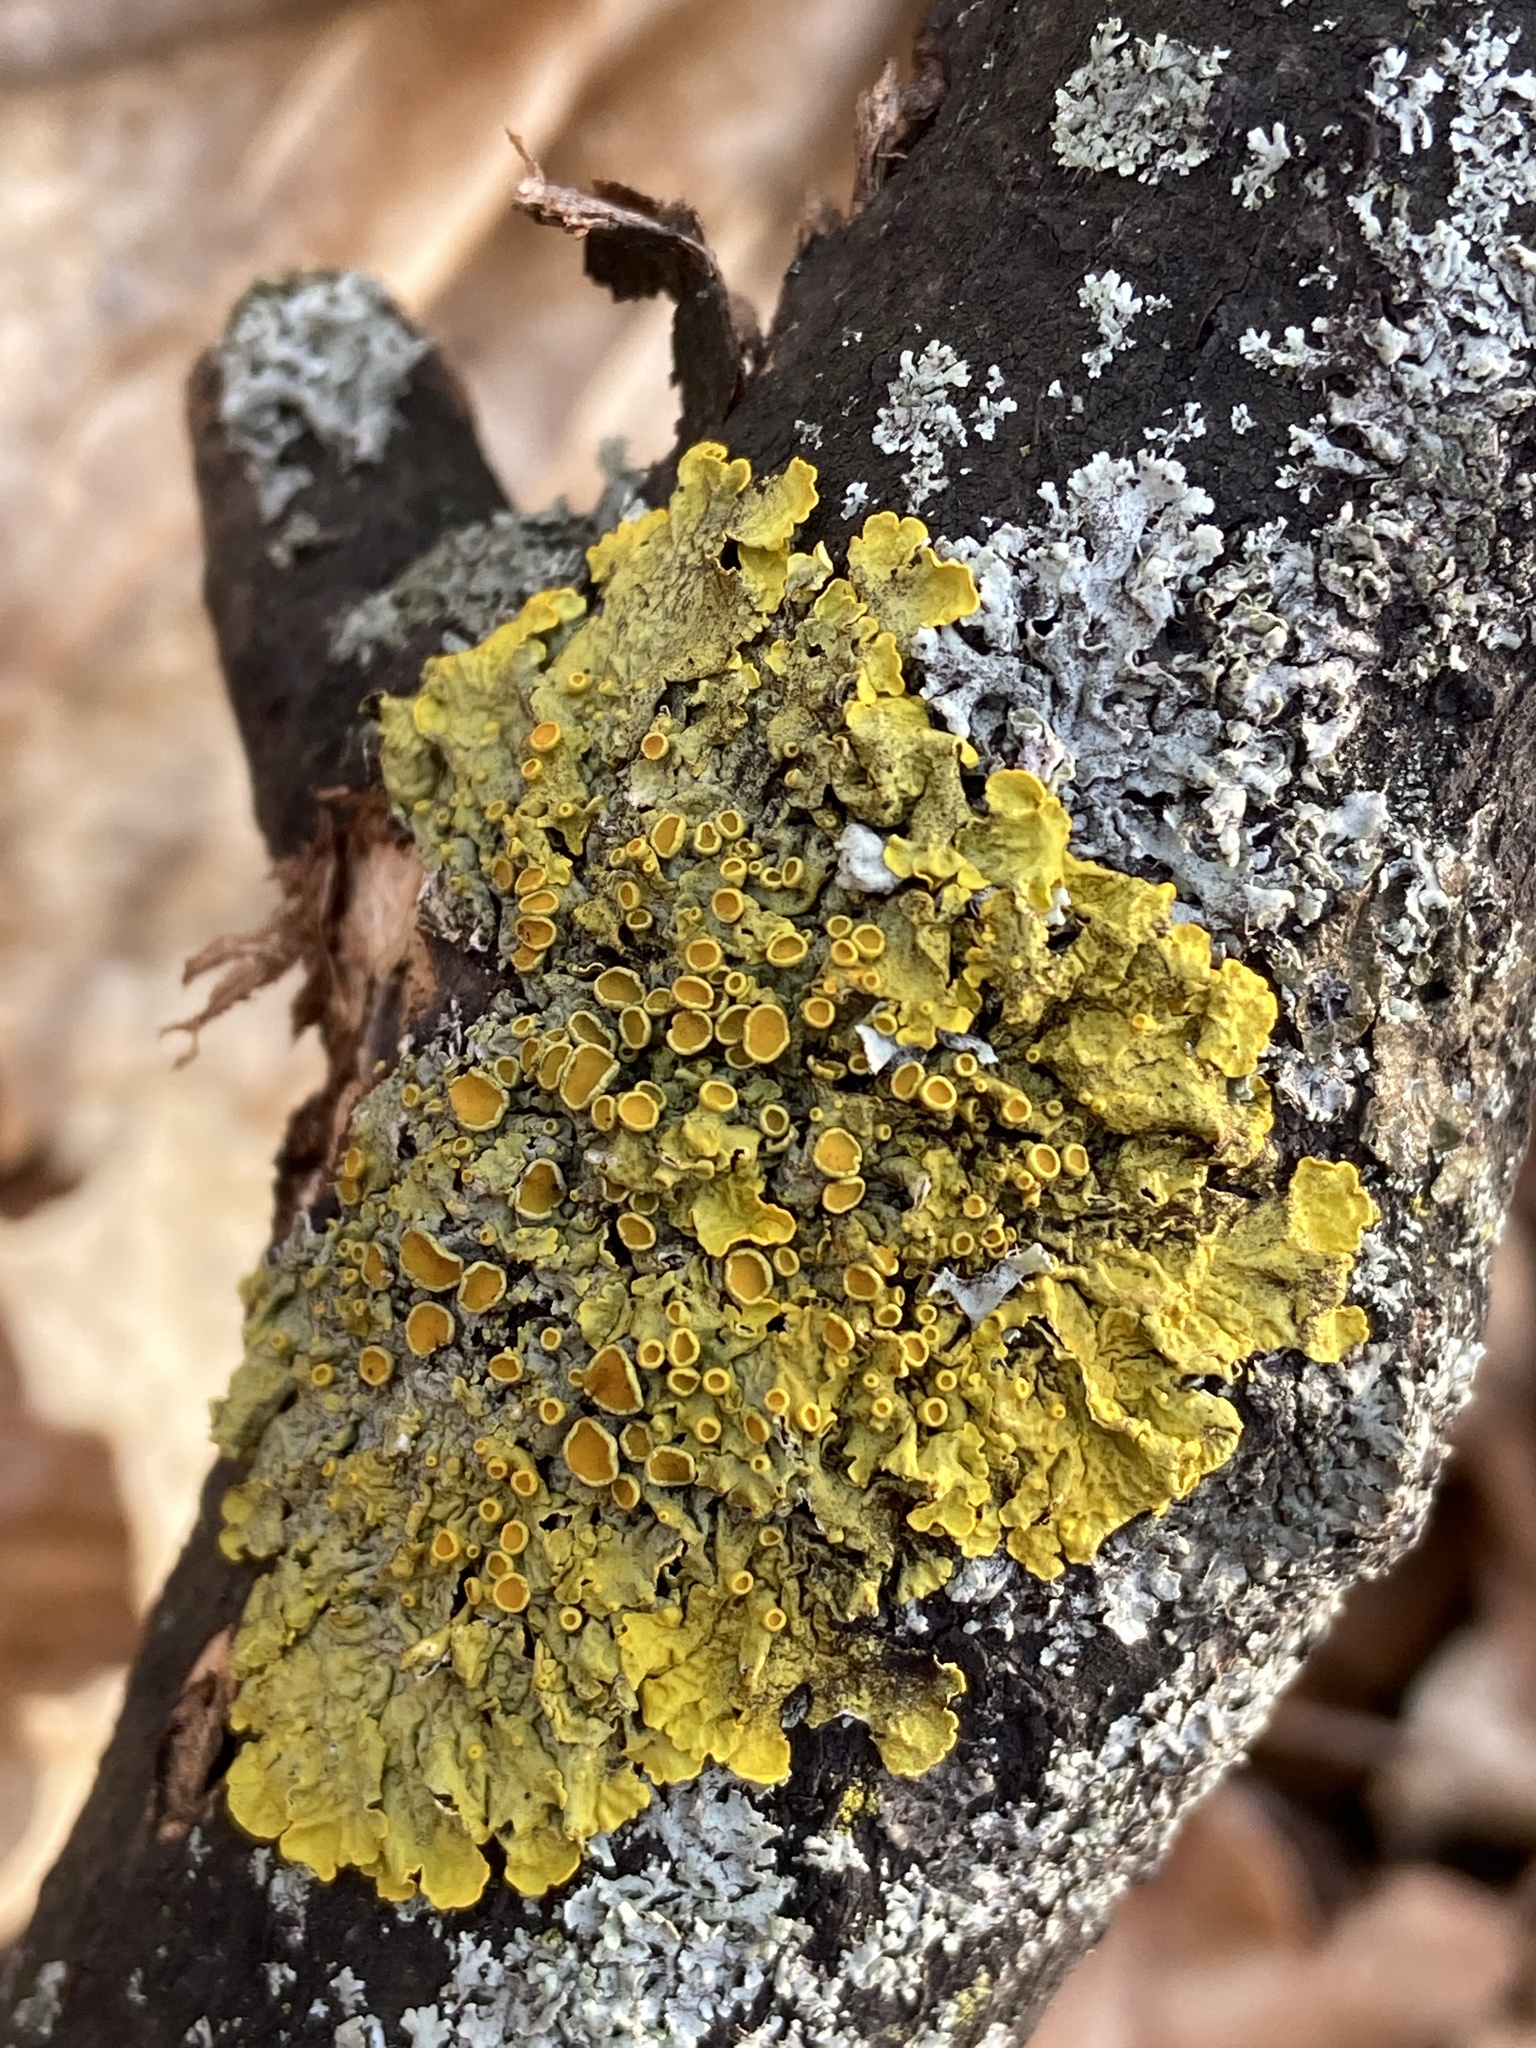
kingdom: Fungi
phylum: Ascomycota
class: Lecanoromycetes
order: Teloschistales
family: Teloschistaceae
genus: Xanthoria
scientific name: Xanthoria parietina
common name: Common orange lichen
